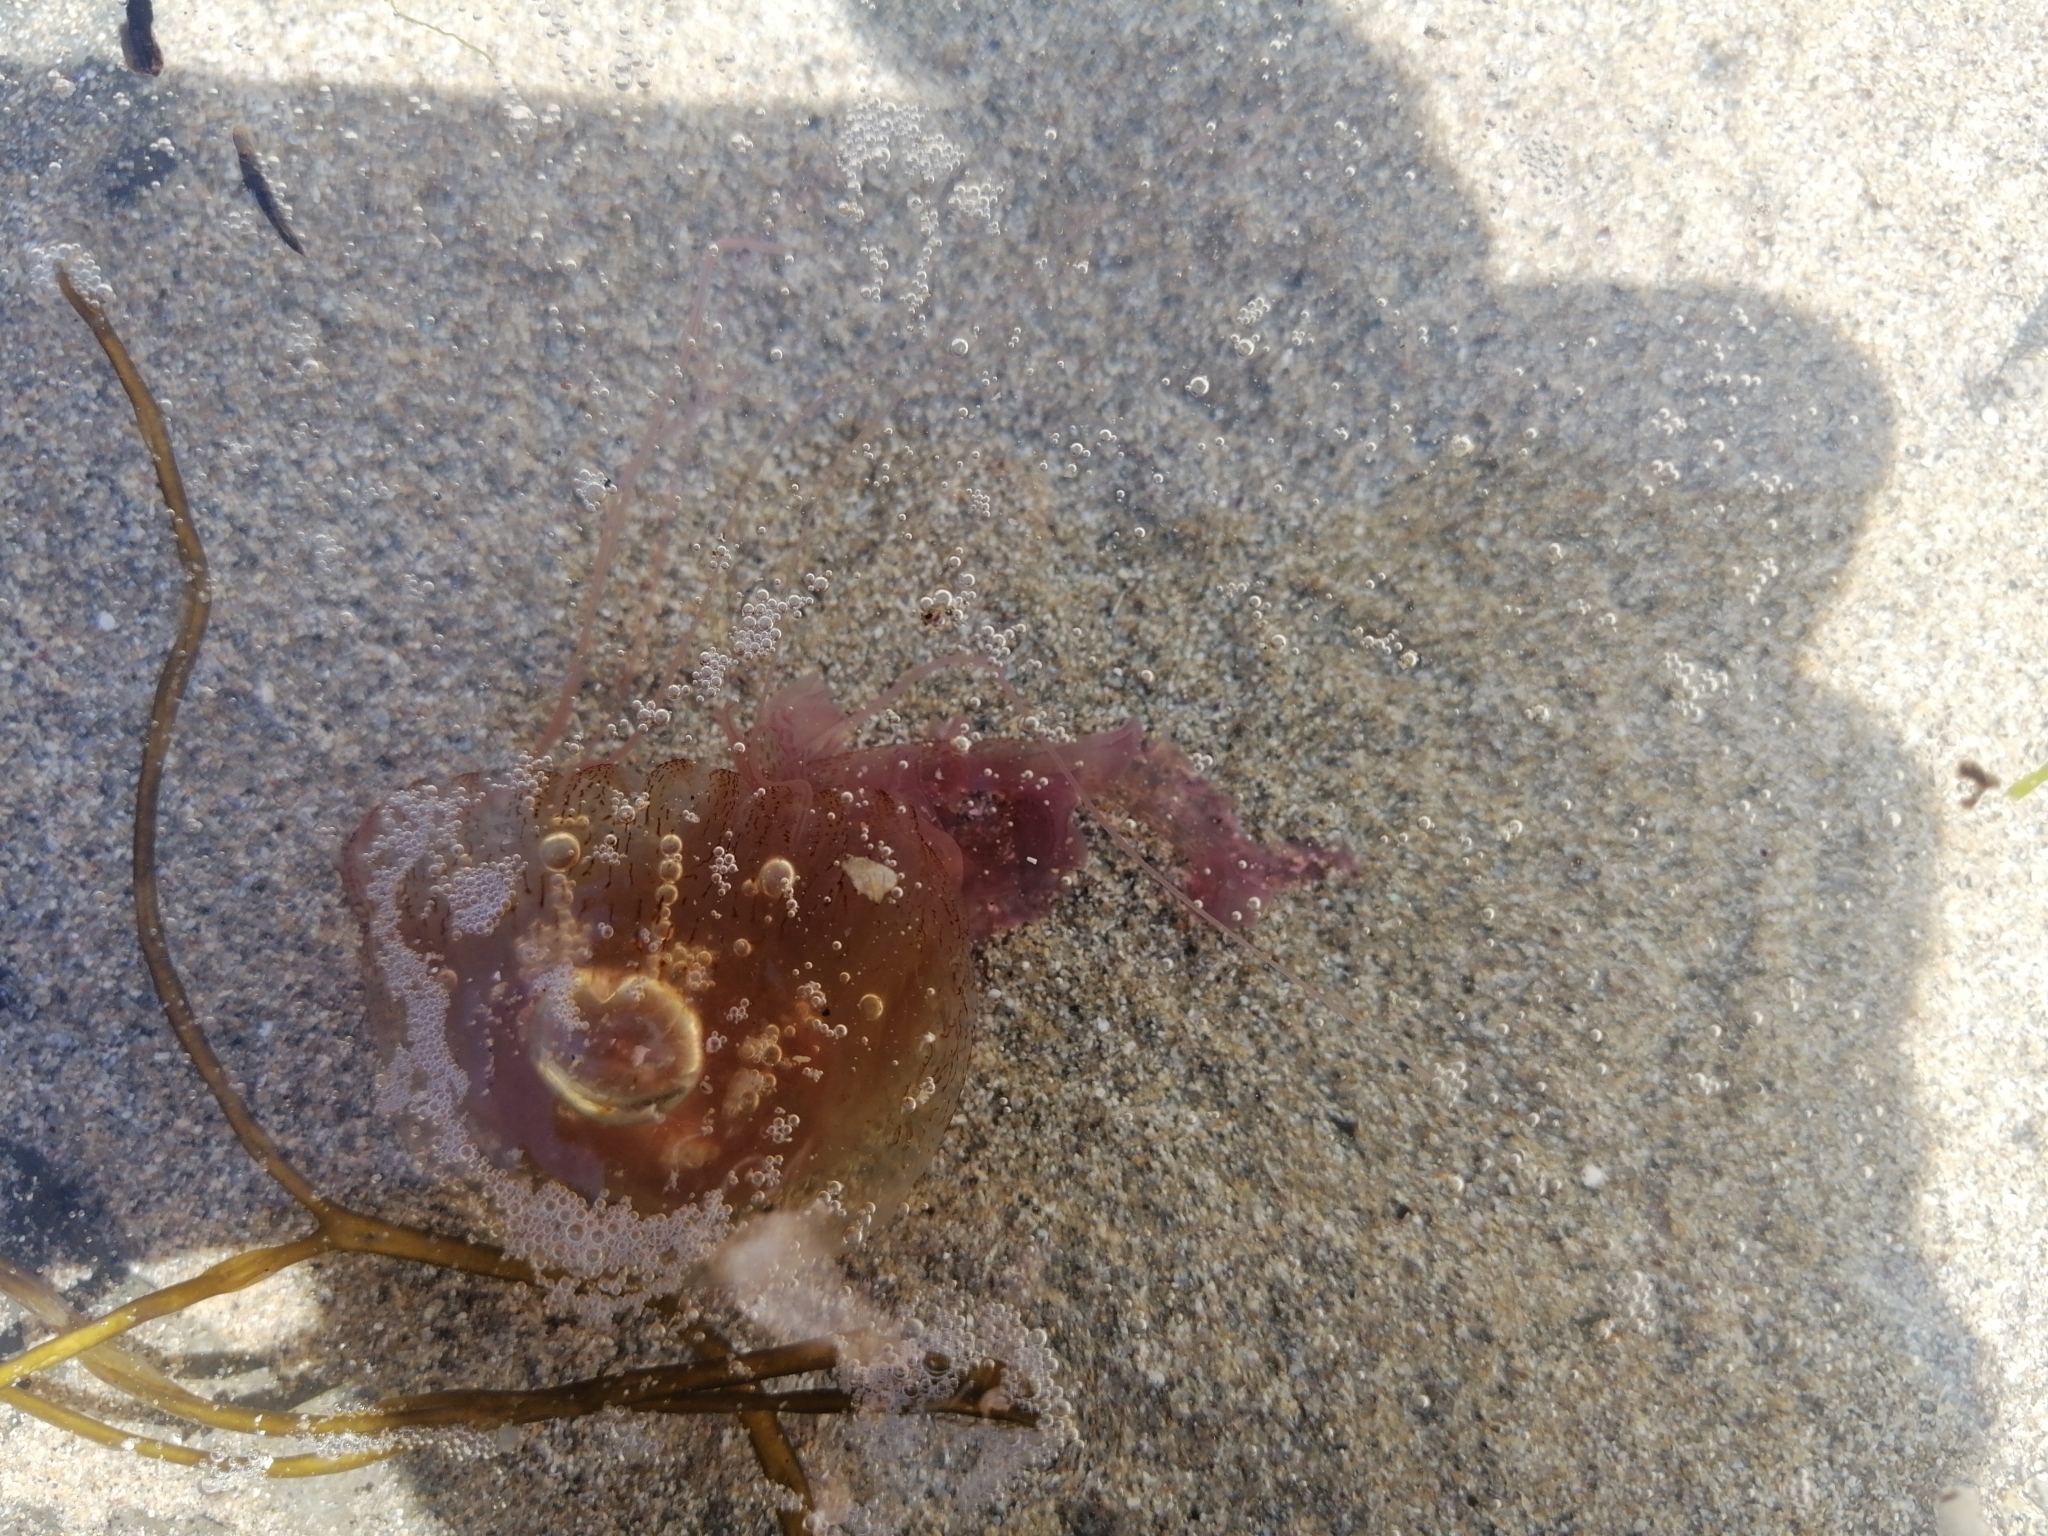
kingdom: Animalia
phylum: Cnidaria
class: Scyphozoa
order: Semaeostomeae
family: Pelagiidae
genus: Pelagia
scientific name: Pelagia noctiluca
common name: Mauve stinger
